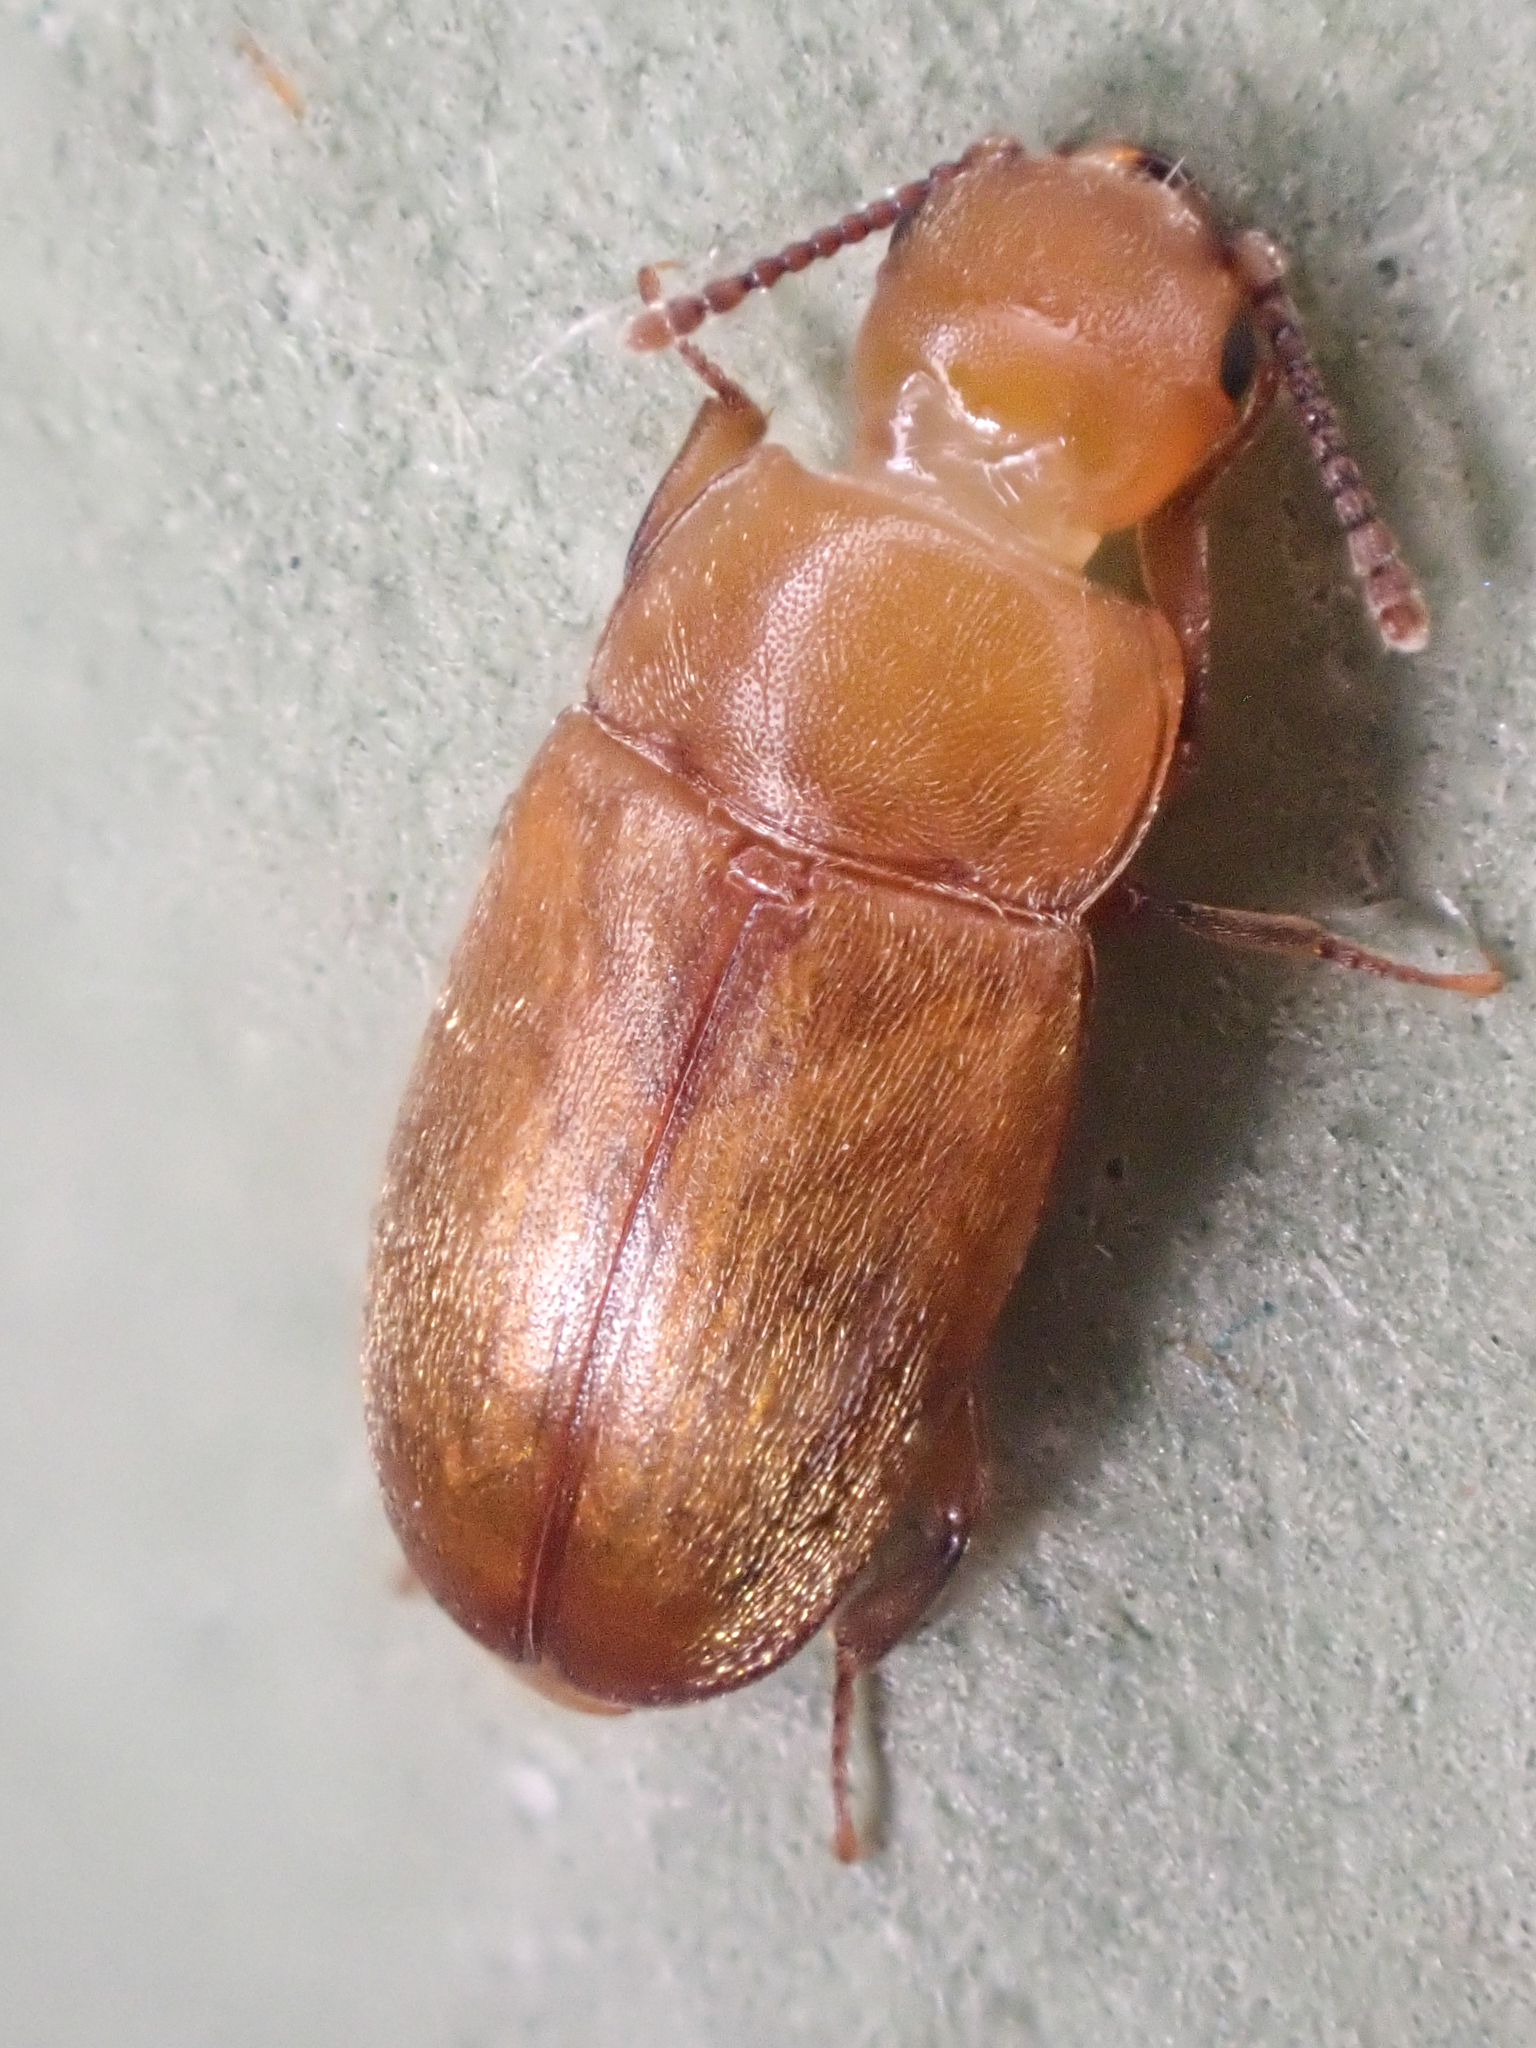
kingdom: Animalia
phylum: Arthropoda
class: Insecta
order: Coleoptera
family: Cryptophagidae
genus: Antherophagus
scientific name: Antherophagus ochraceus
